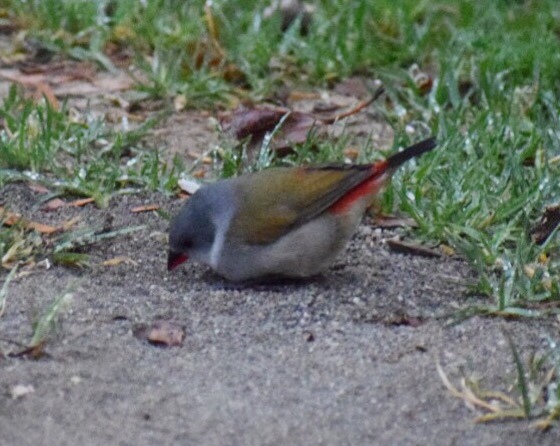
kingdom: Animalia
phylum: Chordata
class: Aves
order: Passeriformes
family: Estrildidae
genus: Coccopygia
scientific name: Coccopygia melanotis
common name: Swee waxbill
